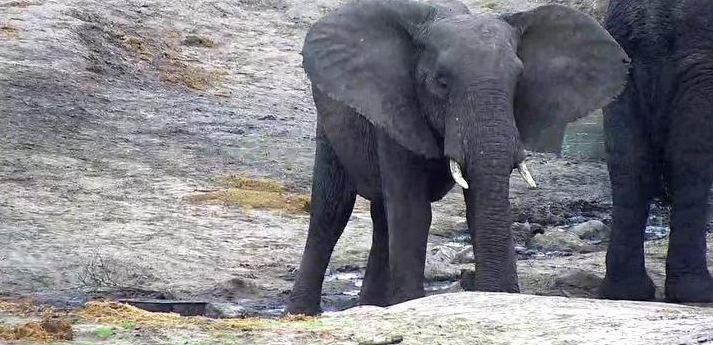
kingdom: Animalia
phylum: Chordata
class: Mammalia
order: Proboscidea
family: Elephantidae
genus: Loxodonta
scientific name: Loxodonta africana
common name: African elephant
